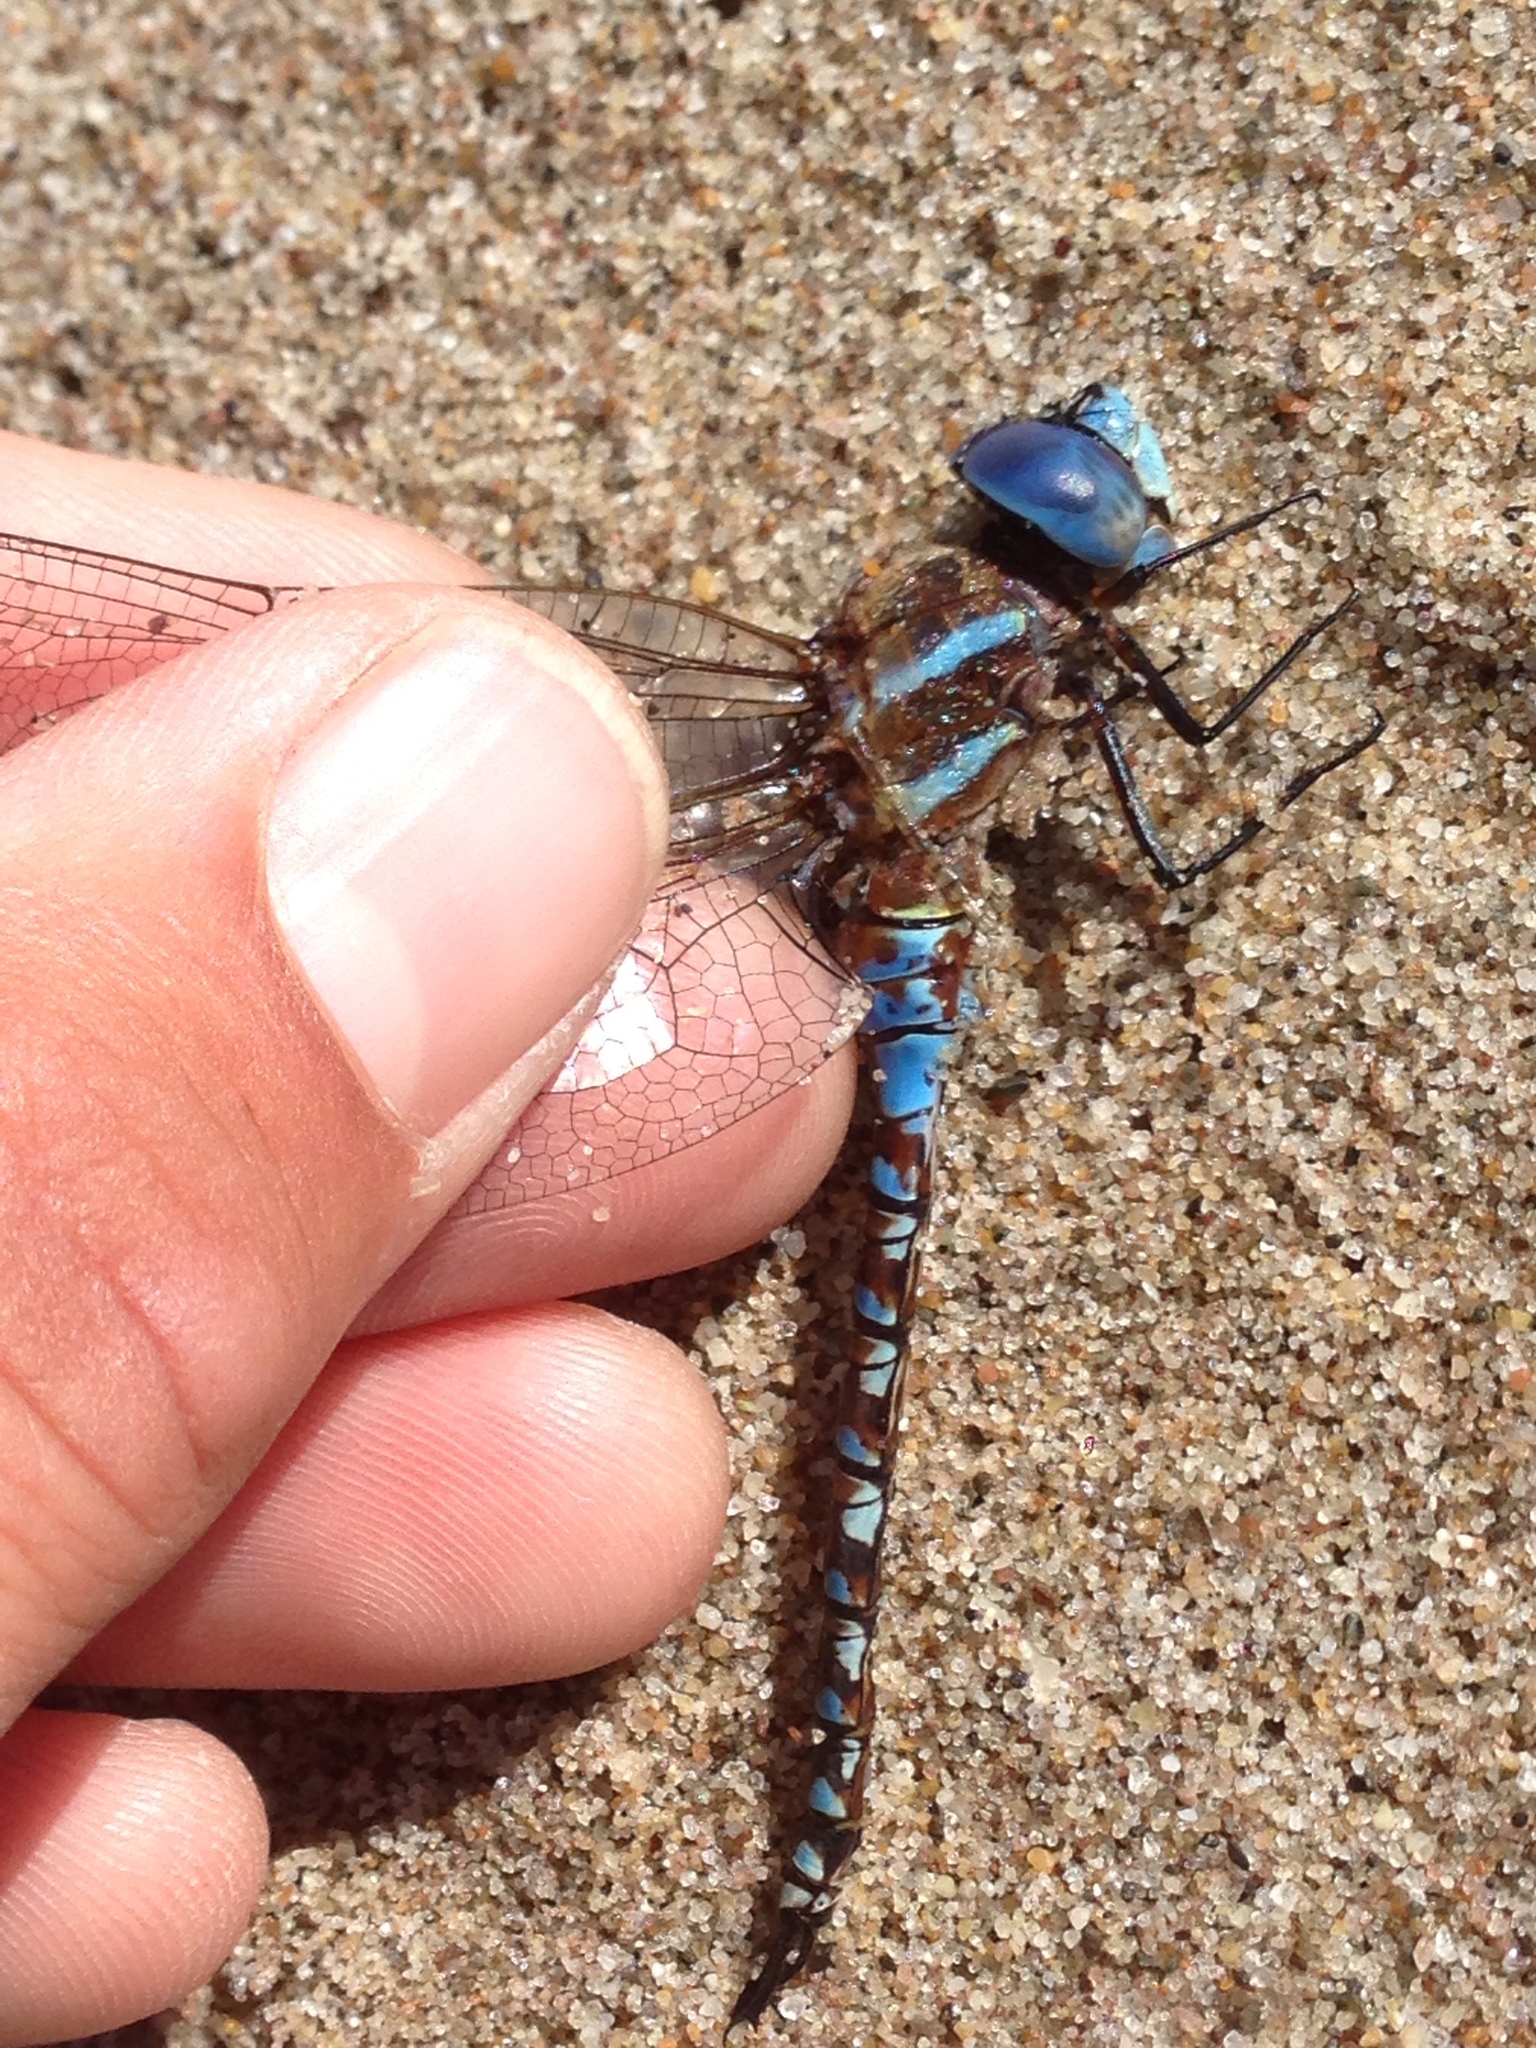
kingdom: Animalia
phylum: Arthropoda
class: Insecta
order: Odonata
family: Aeshnidae
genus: Rhionaeschna
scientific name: Rhionaeschna multicolor
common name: Blue-eyed darner
